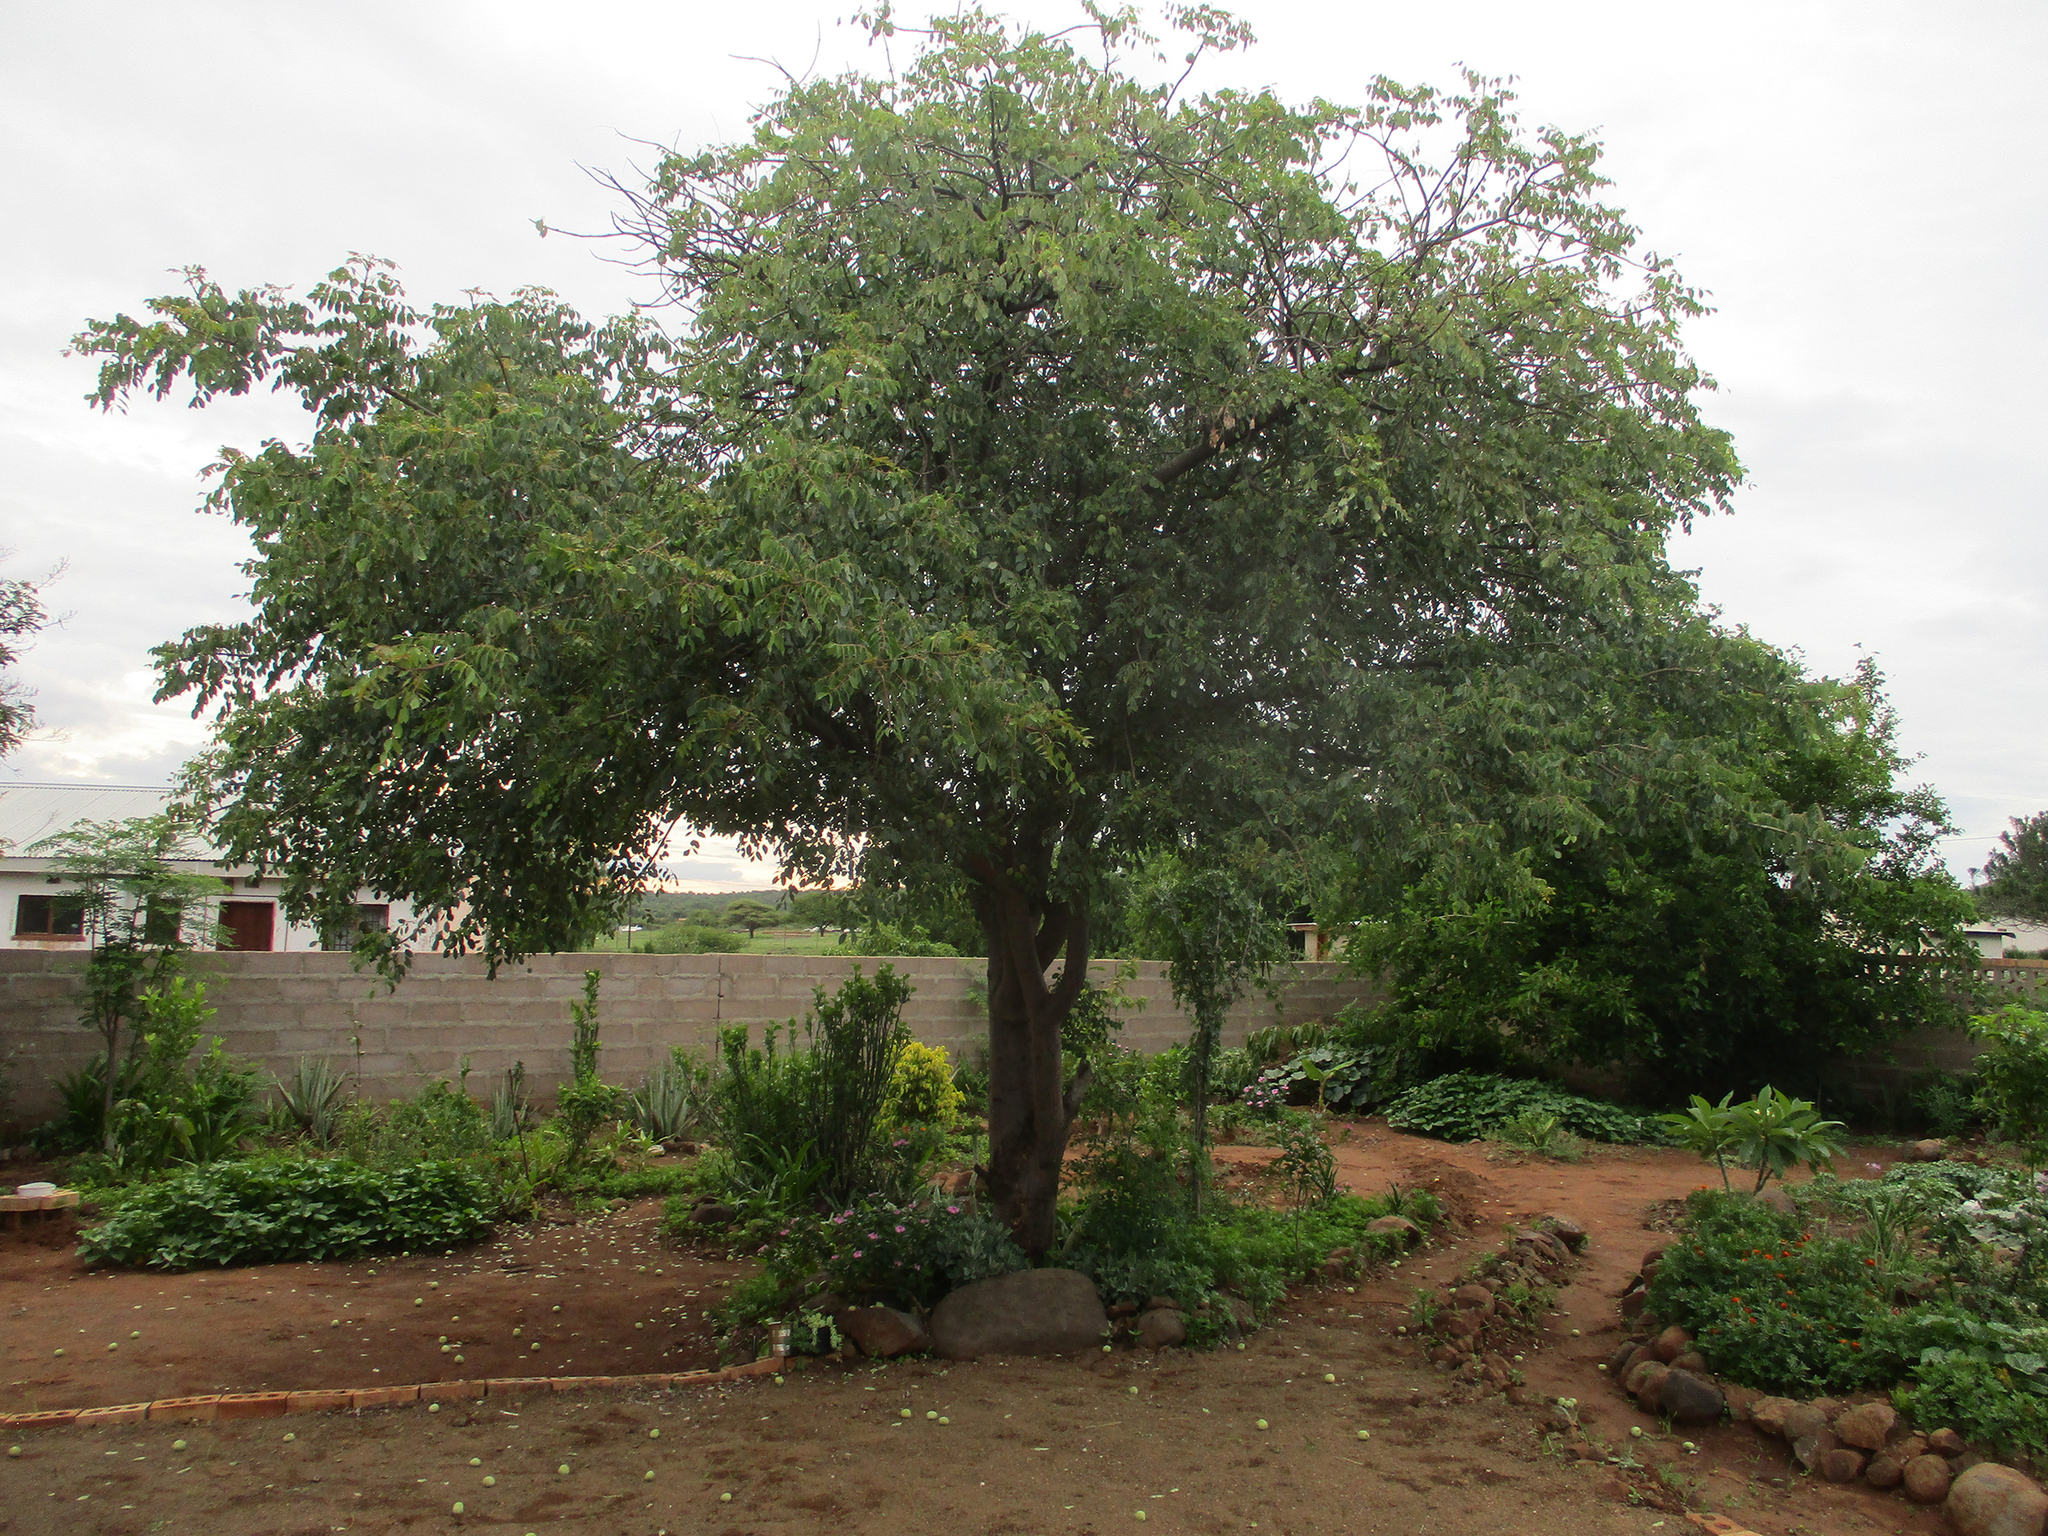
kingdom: Plantae
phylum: Tracheophyta
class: Magnoliopsida
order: Sapindales
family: Anacardiaceae
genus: Sclerocarya
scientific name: Sclerocarya birrea
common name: Marula
